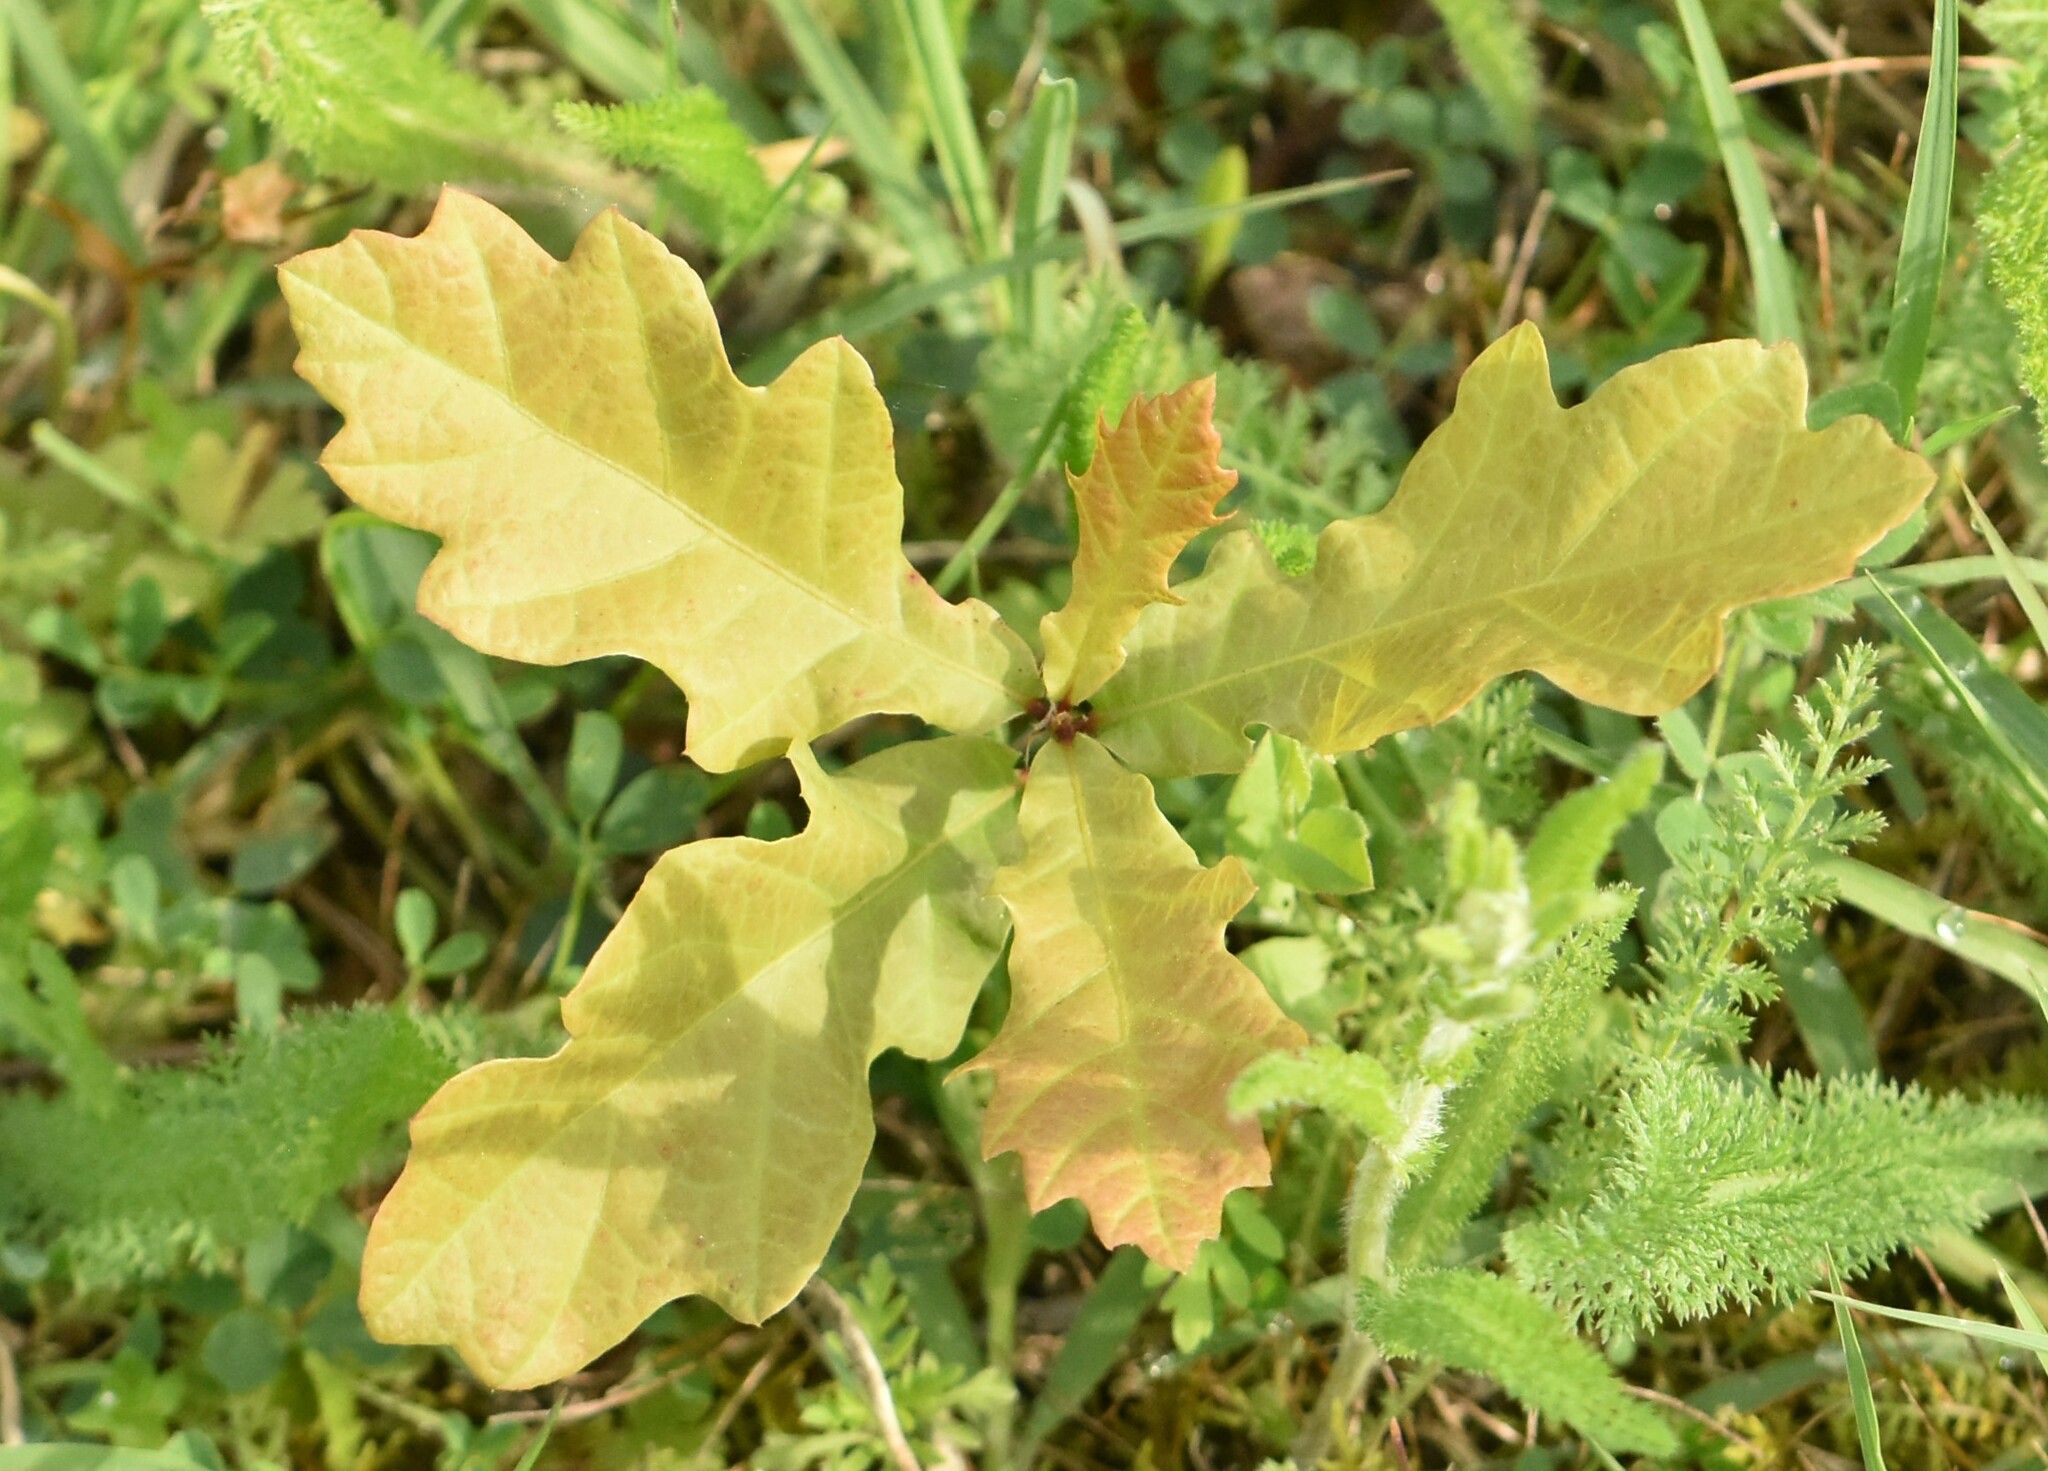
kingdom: Plantae
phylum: Tracheophyta
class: Magnoliopsida
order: Fagales
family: Fagaceae
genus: Quercus
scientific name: Quercus robur
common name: Pedunculate oak
